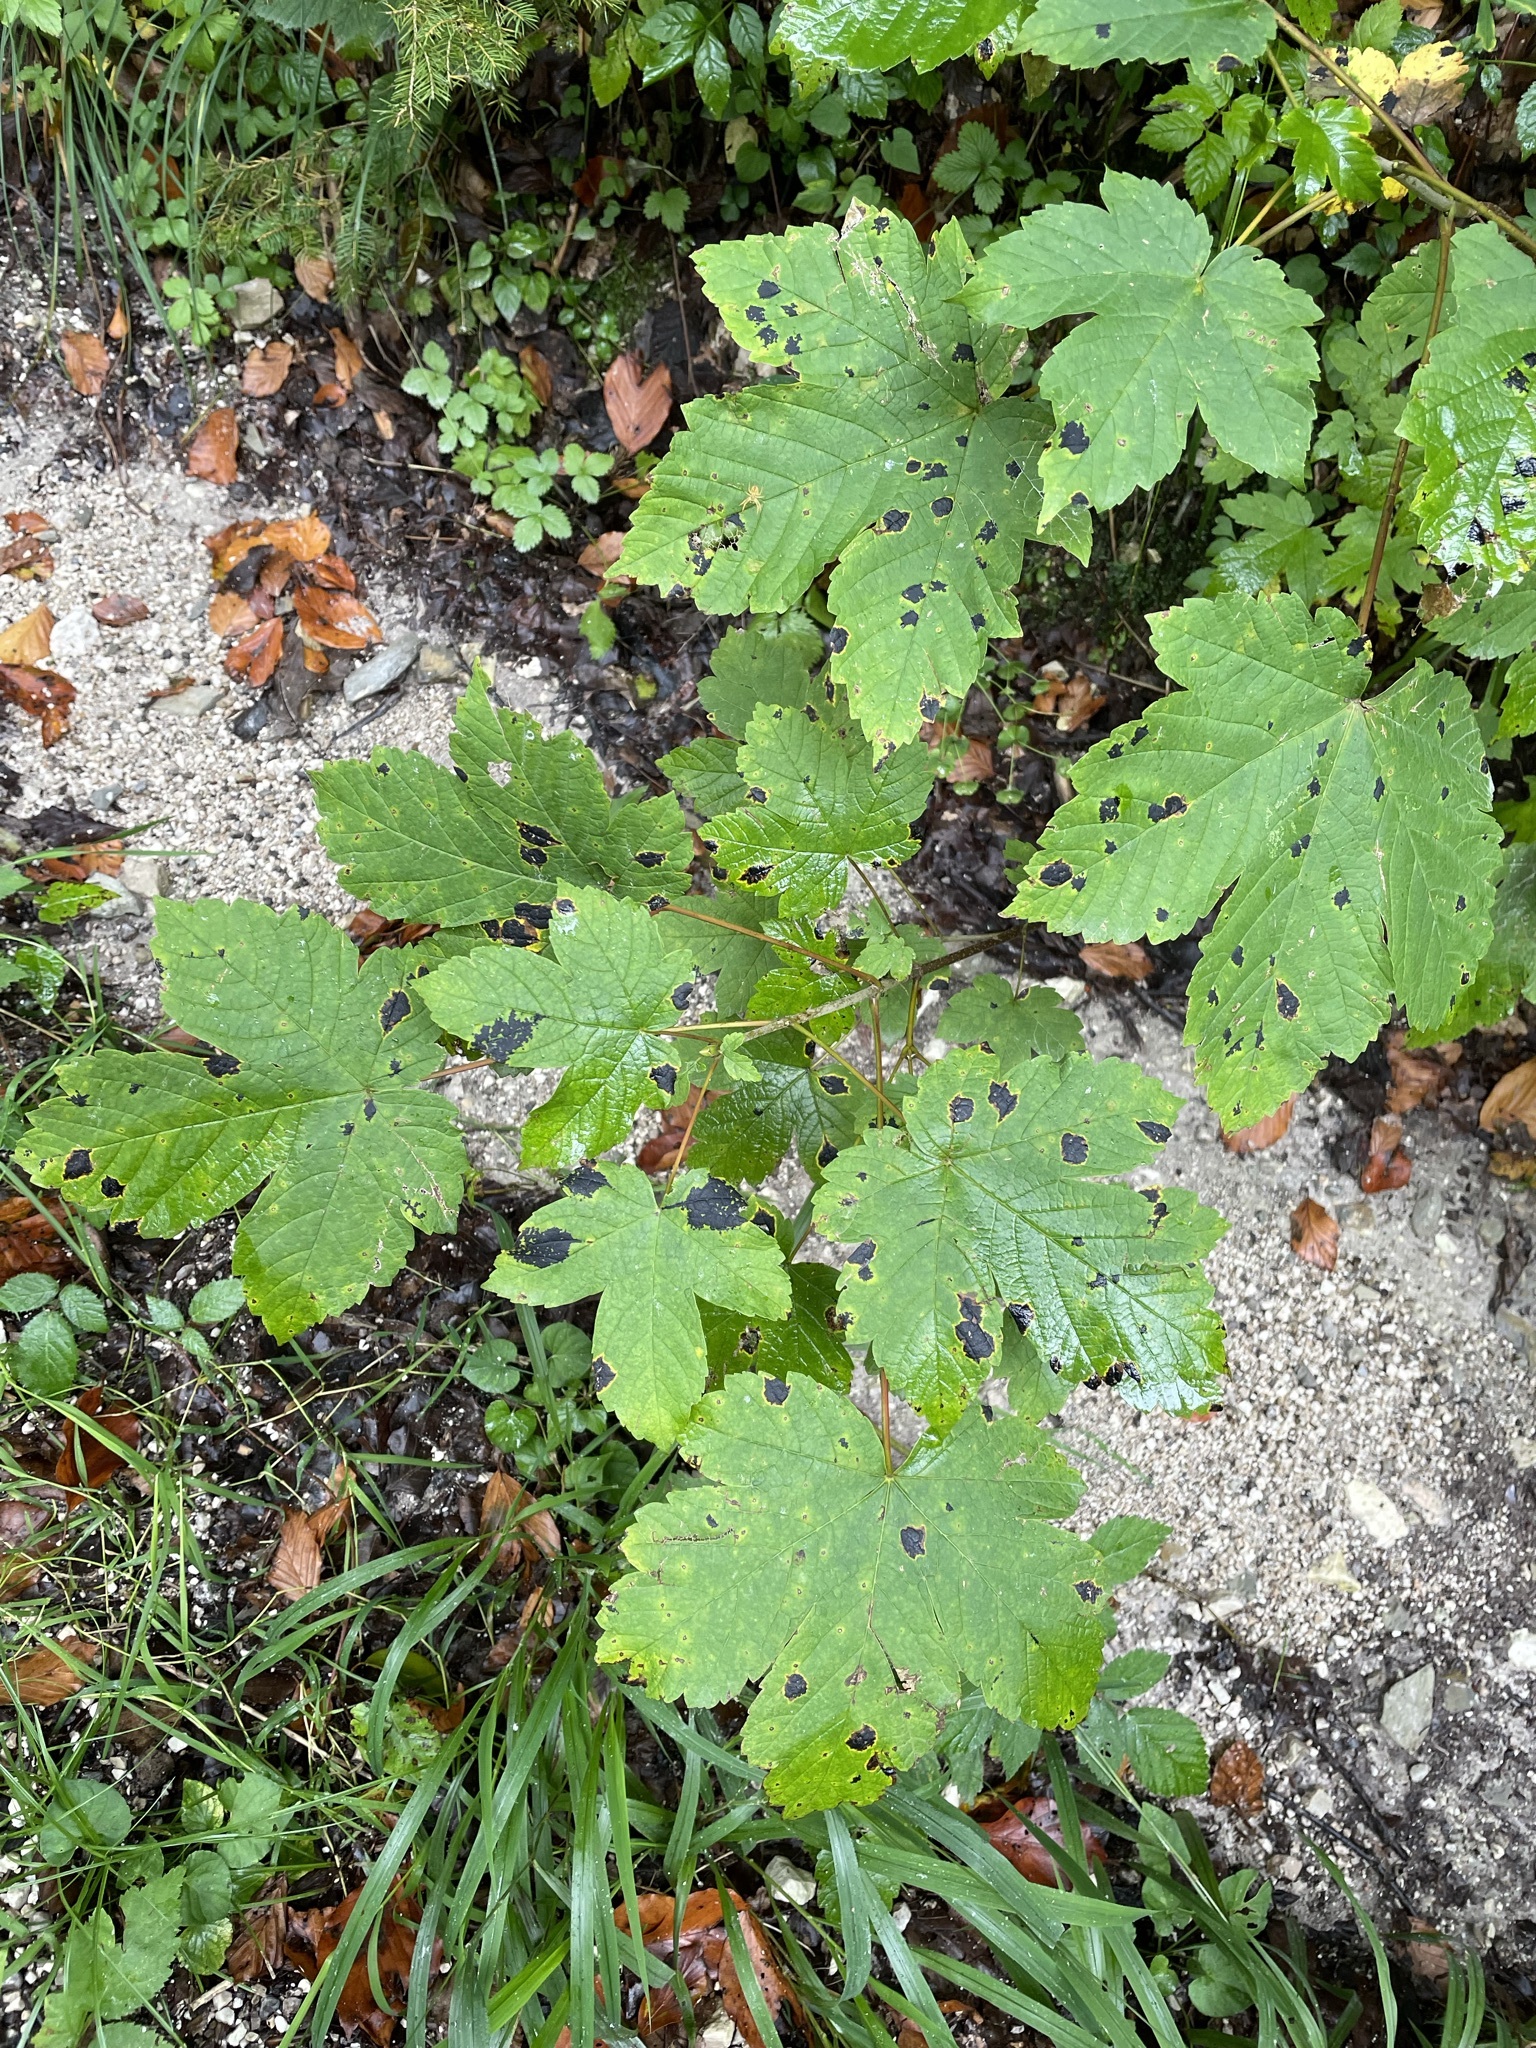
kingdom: Plantae
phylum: Tracheophyta
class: Magnoliopsida
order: Sapindales
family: Sapindaceae
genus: Acer
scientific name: Acer pseudoplatanus
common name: Sycamore
